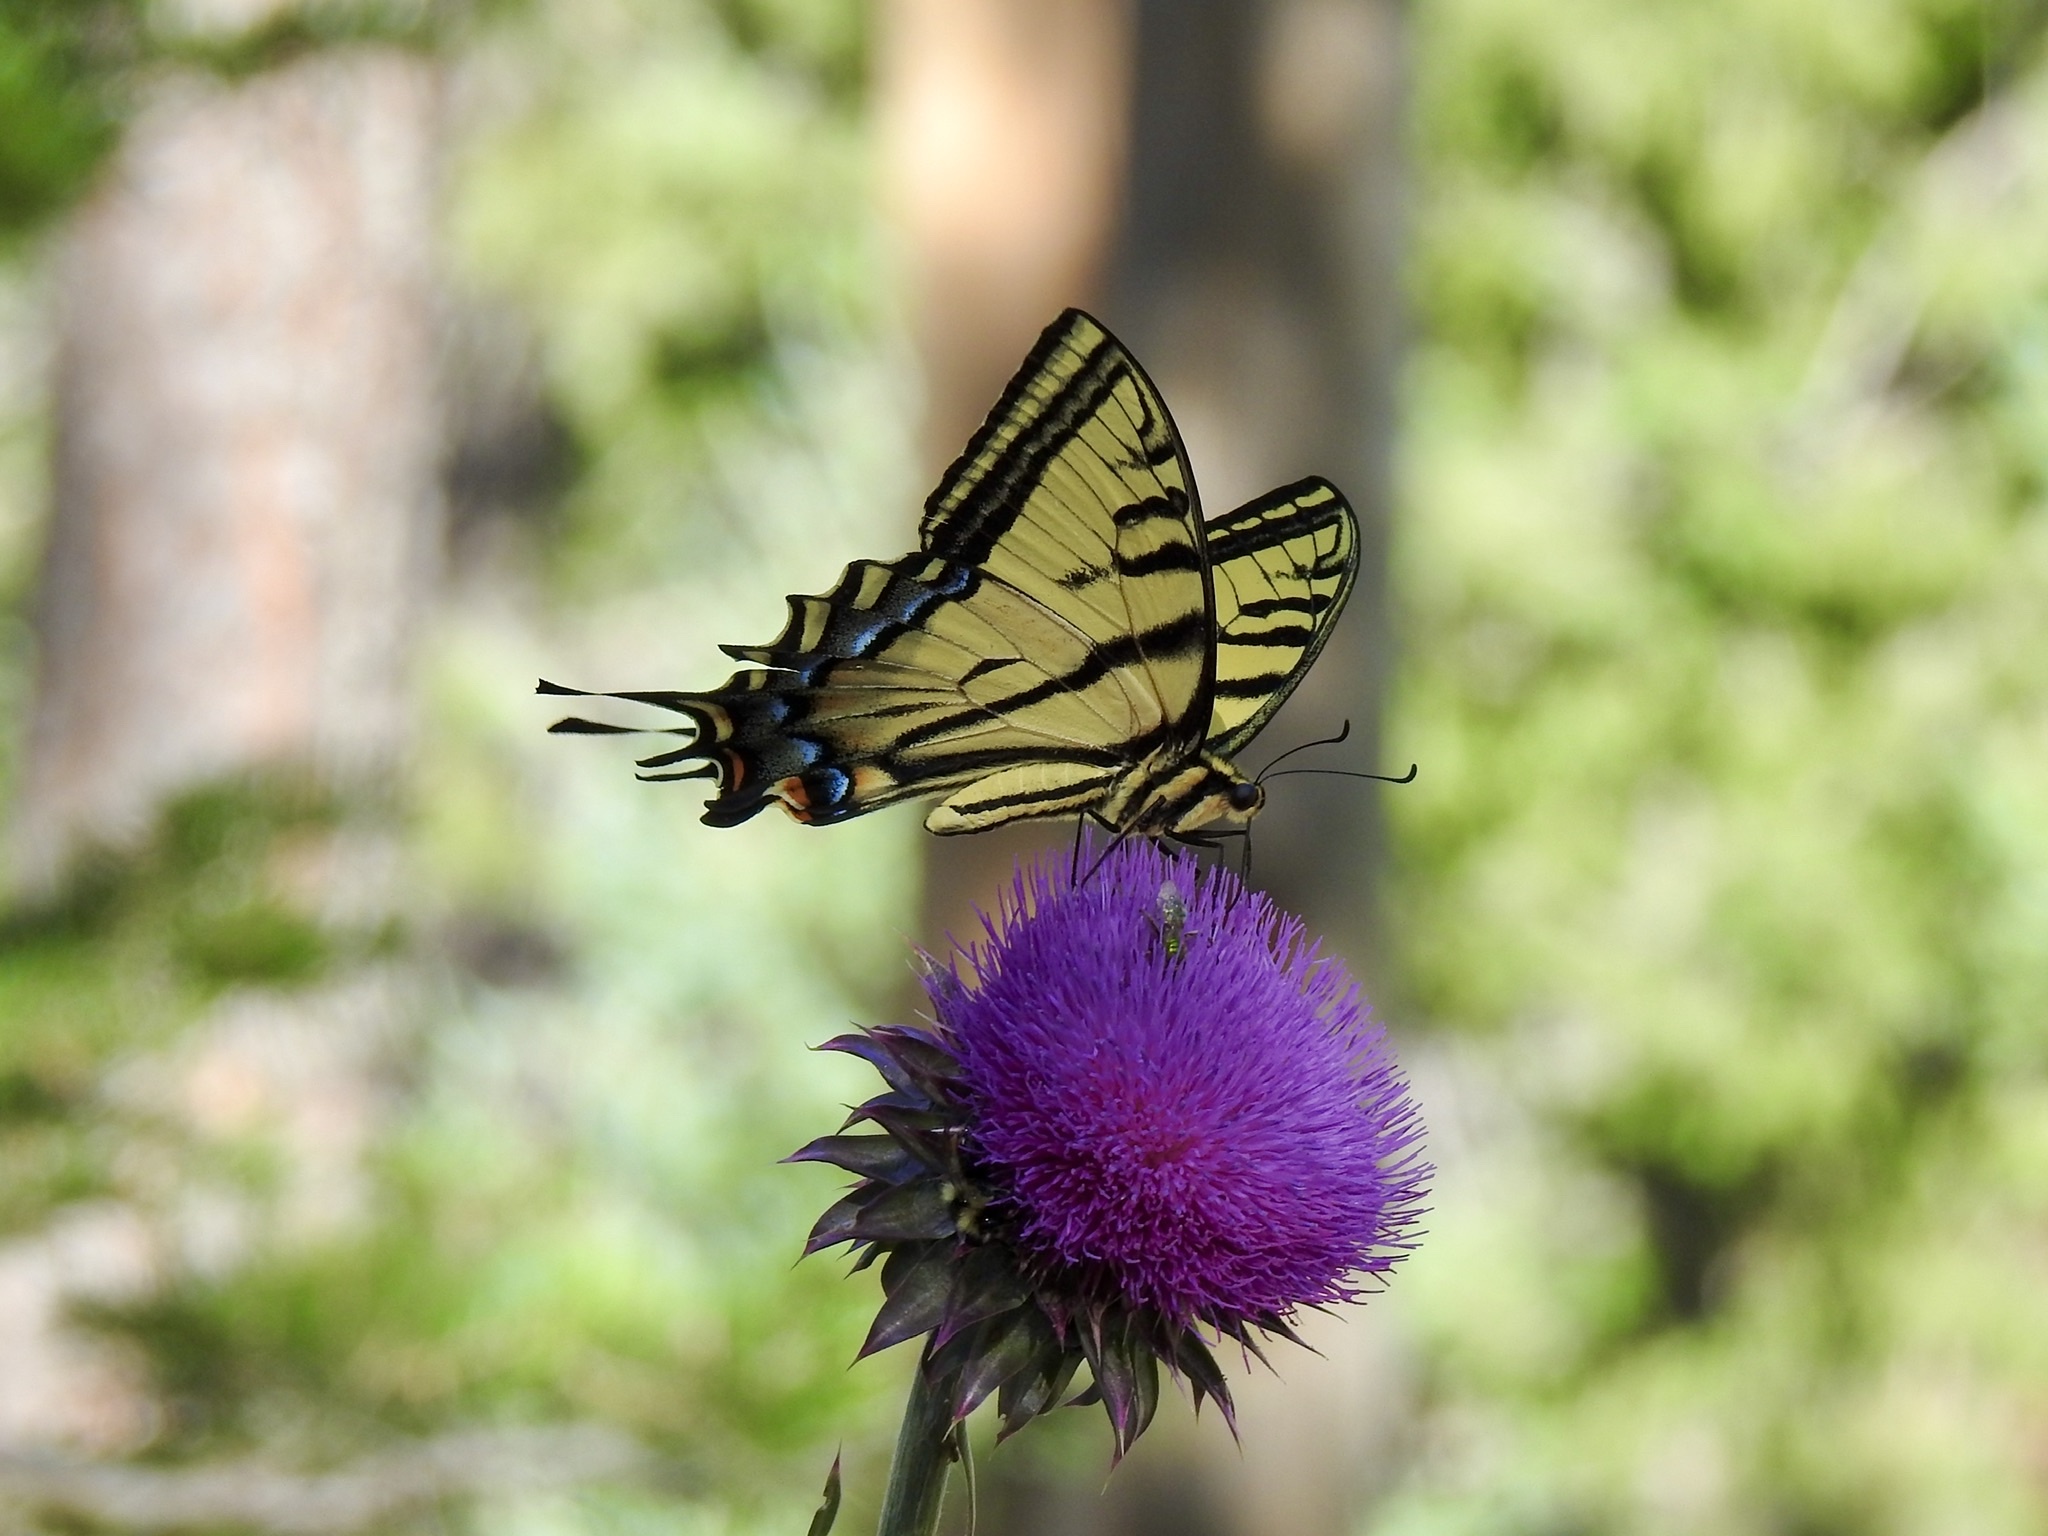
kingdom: Animalia
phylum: Arthropoda
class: Insecta
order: Lepidoptera
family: Papilionidae
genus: Papilio
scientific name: Papilio multicaudata
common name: Two-tailed tiger swallowtail
